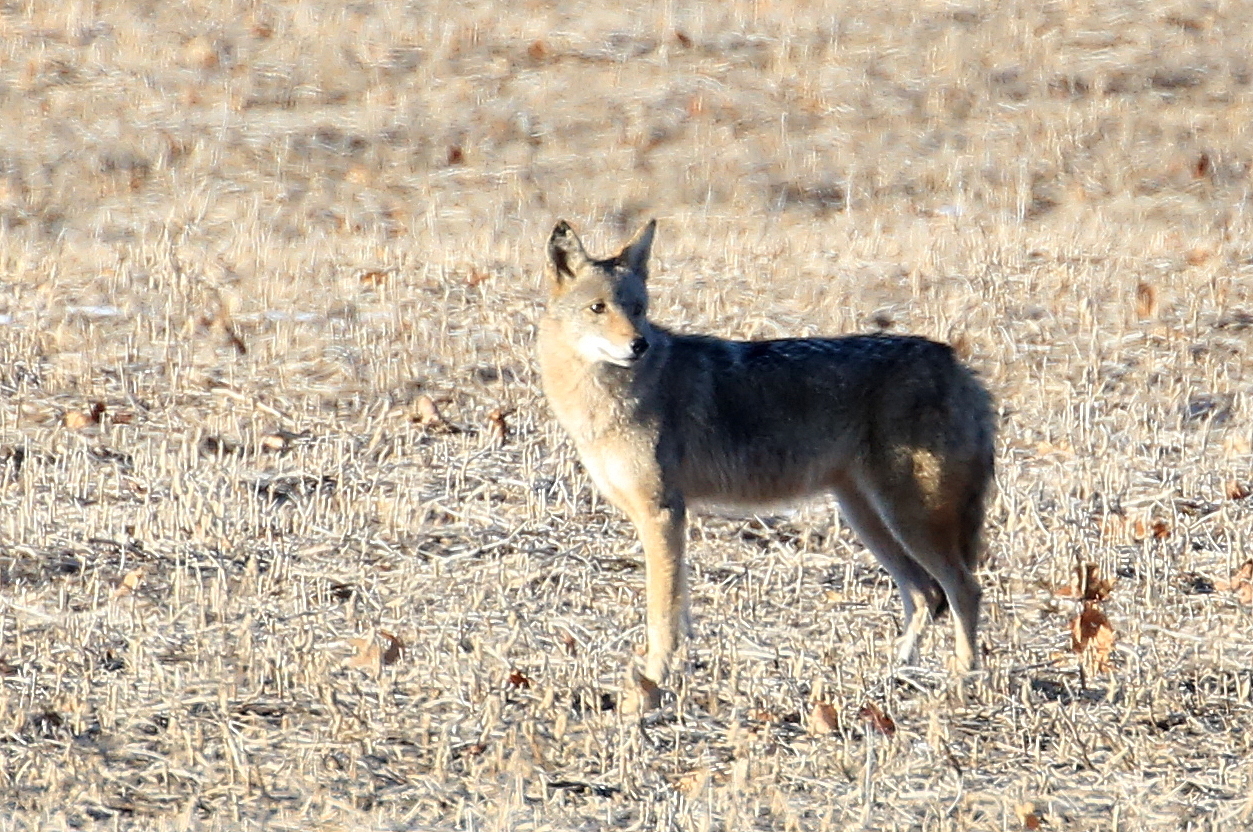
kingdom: Animalia
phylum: Chordata
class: Mammalia
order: Carnivora
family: Canidae
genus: Canis
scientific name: Canis latrans
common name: Coyote
